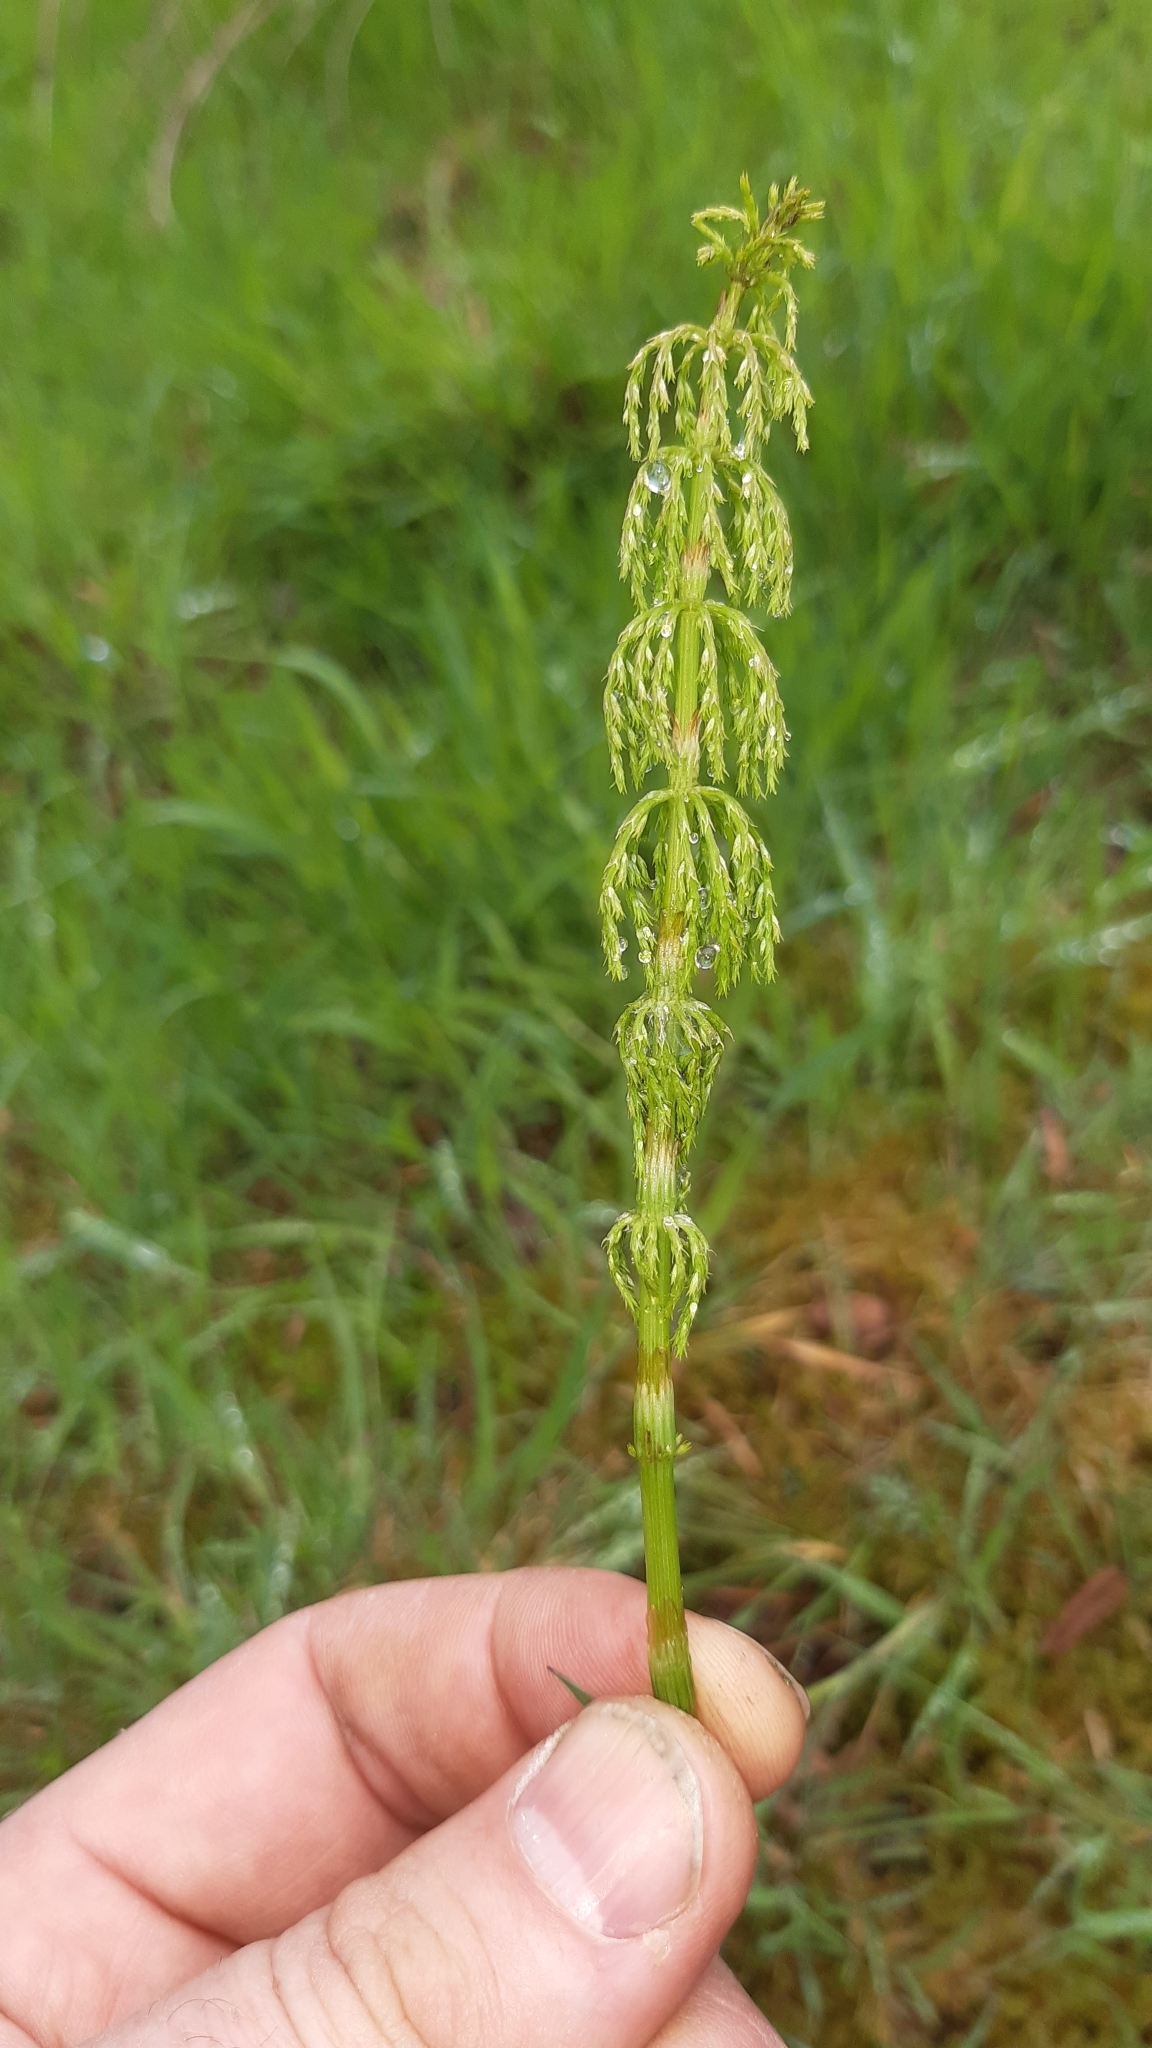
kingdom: Plantae
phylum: Tracheophyta
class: Polypodiopsida
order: Equisetales
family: Equisetaceae
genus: Equisetum
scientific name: Equisetum sylvaticum
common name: Wood horsetail
